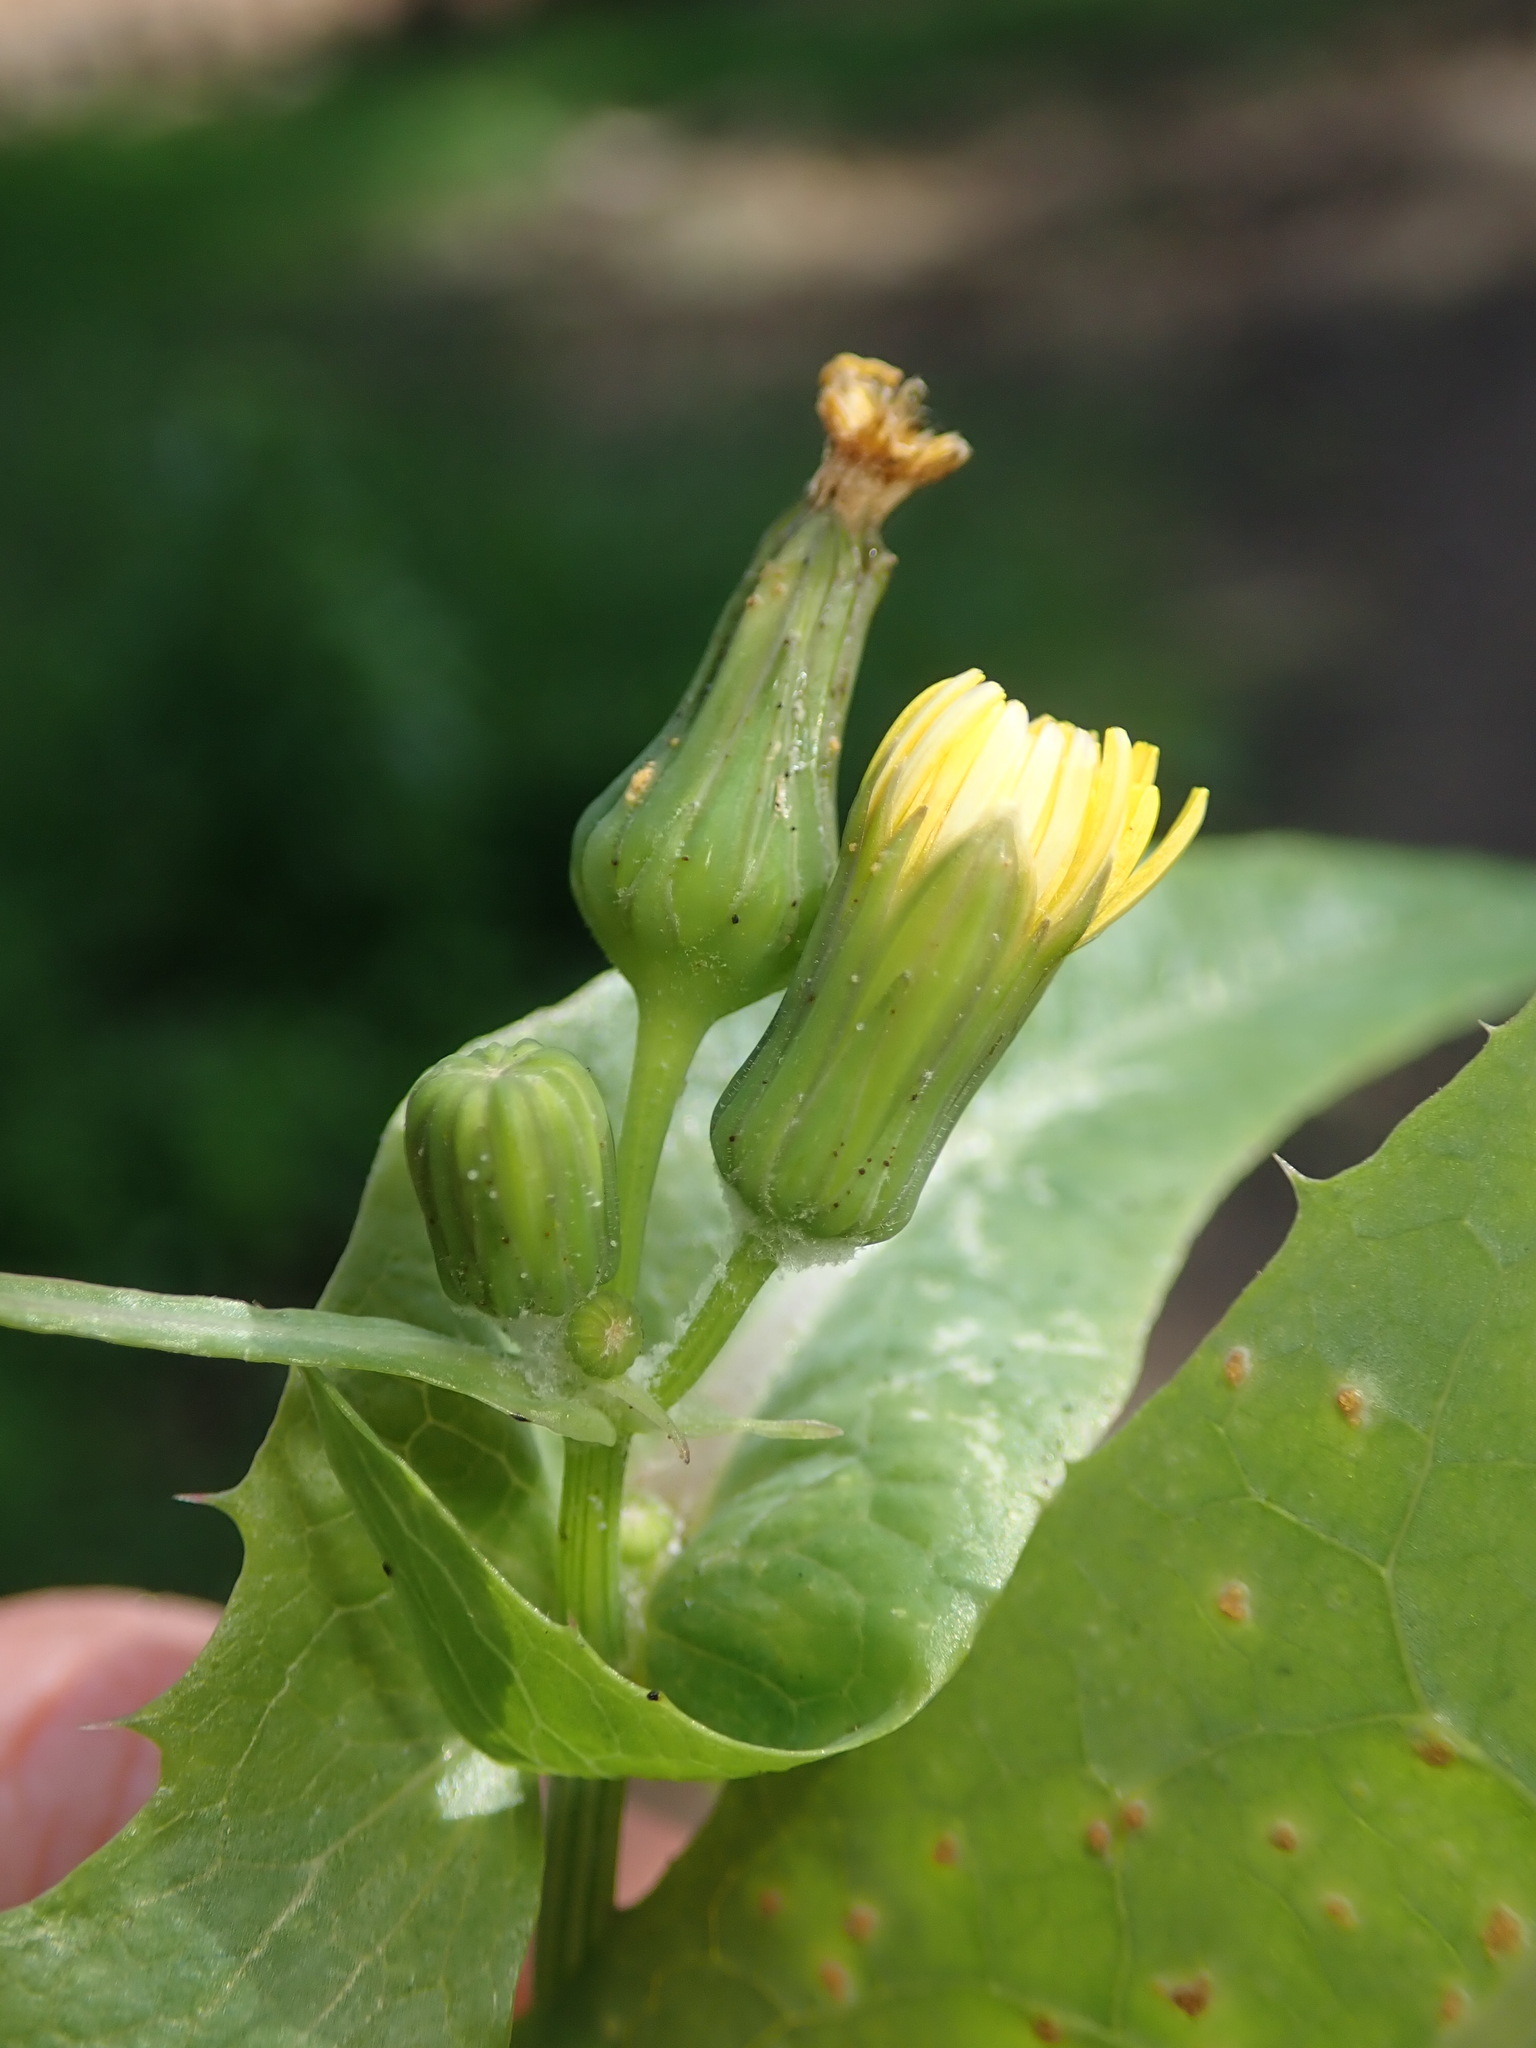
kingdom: Plantae
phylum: Tracheophyta
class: Magnoliopsida
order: Asterales
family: Asteraceae
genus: Sonchus
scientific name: Sonchus oleraceus
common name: Common sowthistle
